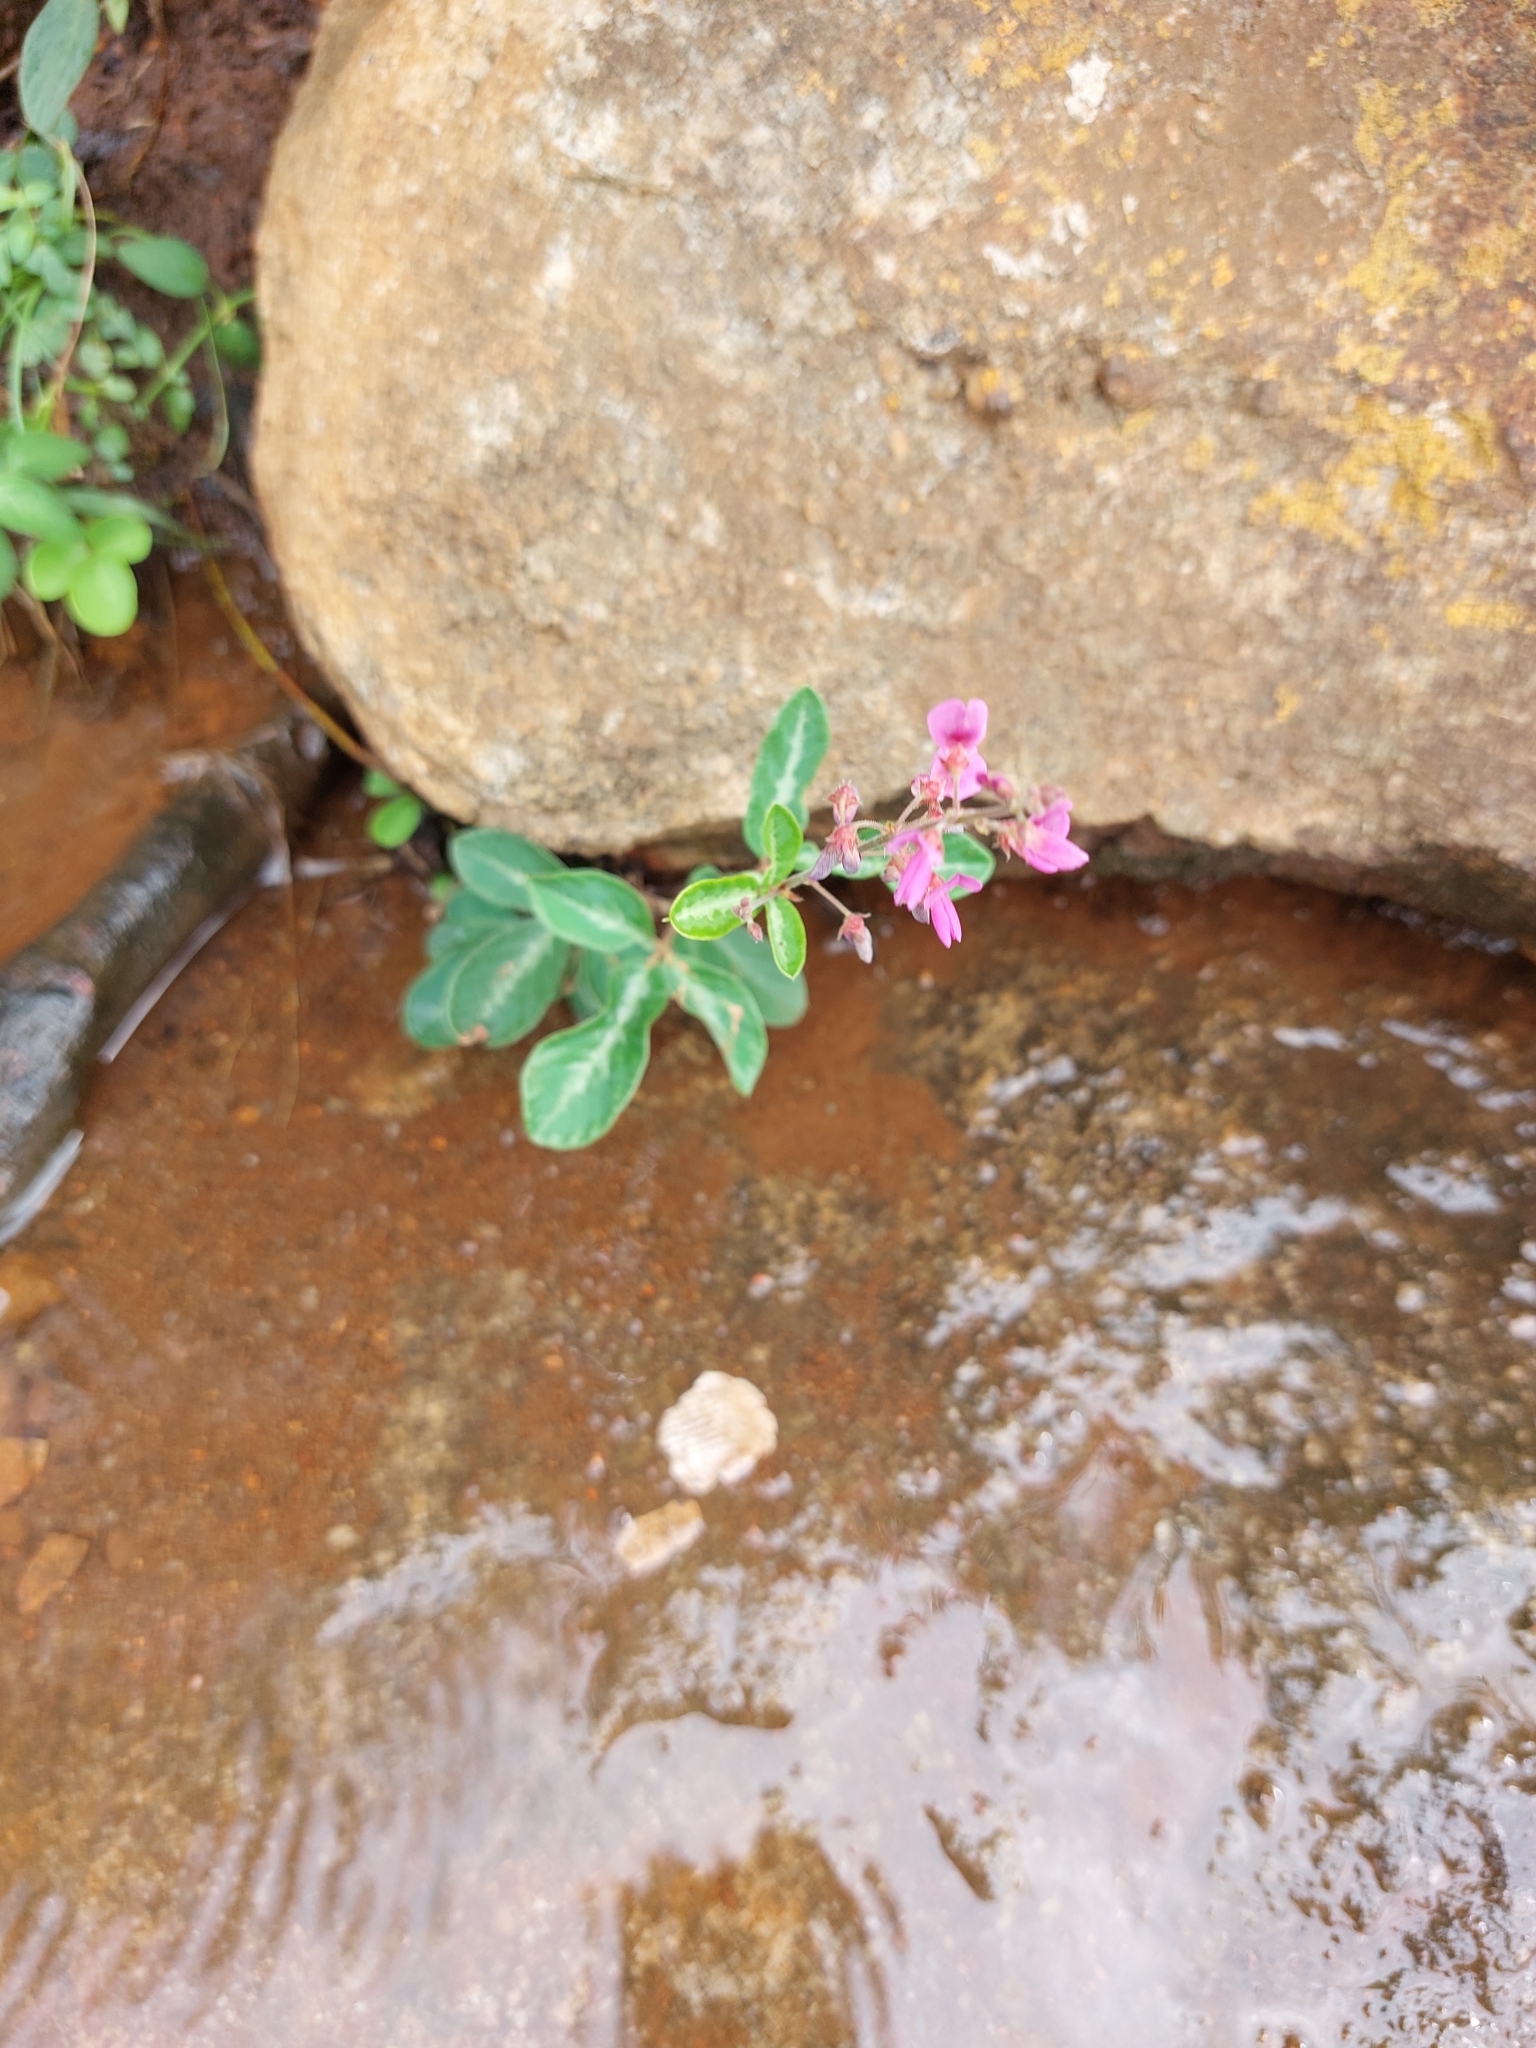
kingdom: Plantae
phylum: Tracheophyta
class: Magnoliopsida
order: Fabales
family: Fabaceae
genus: Desmodium
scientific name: Desmodium incanum
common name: Tickclover
